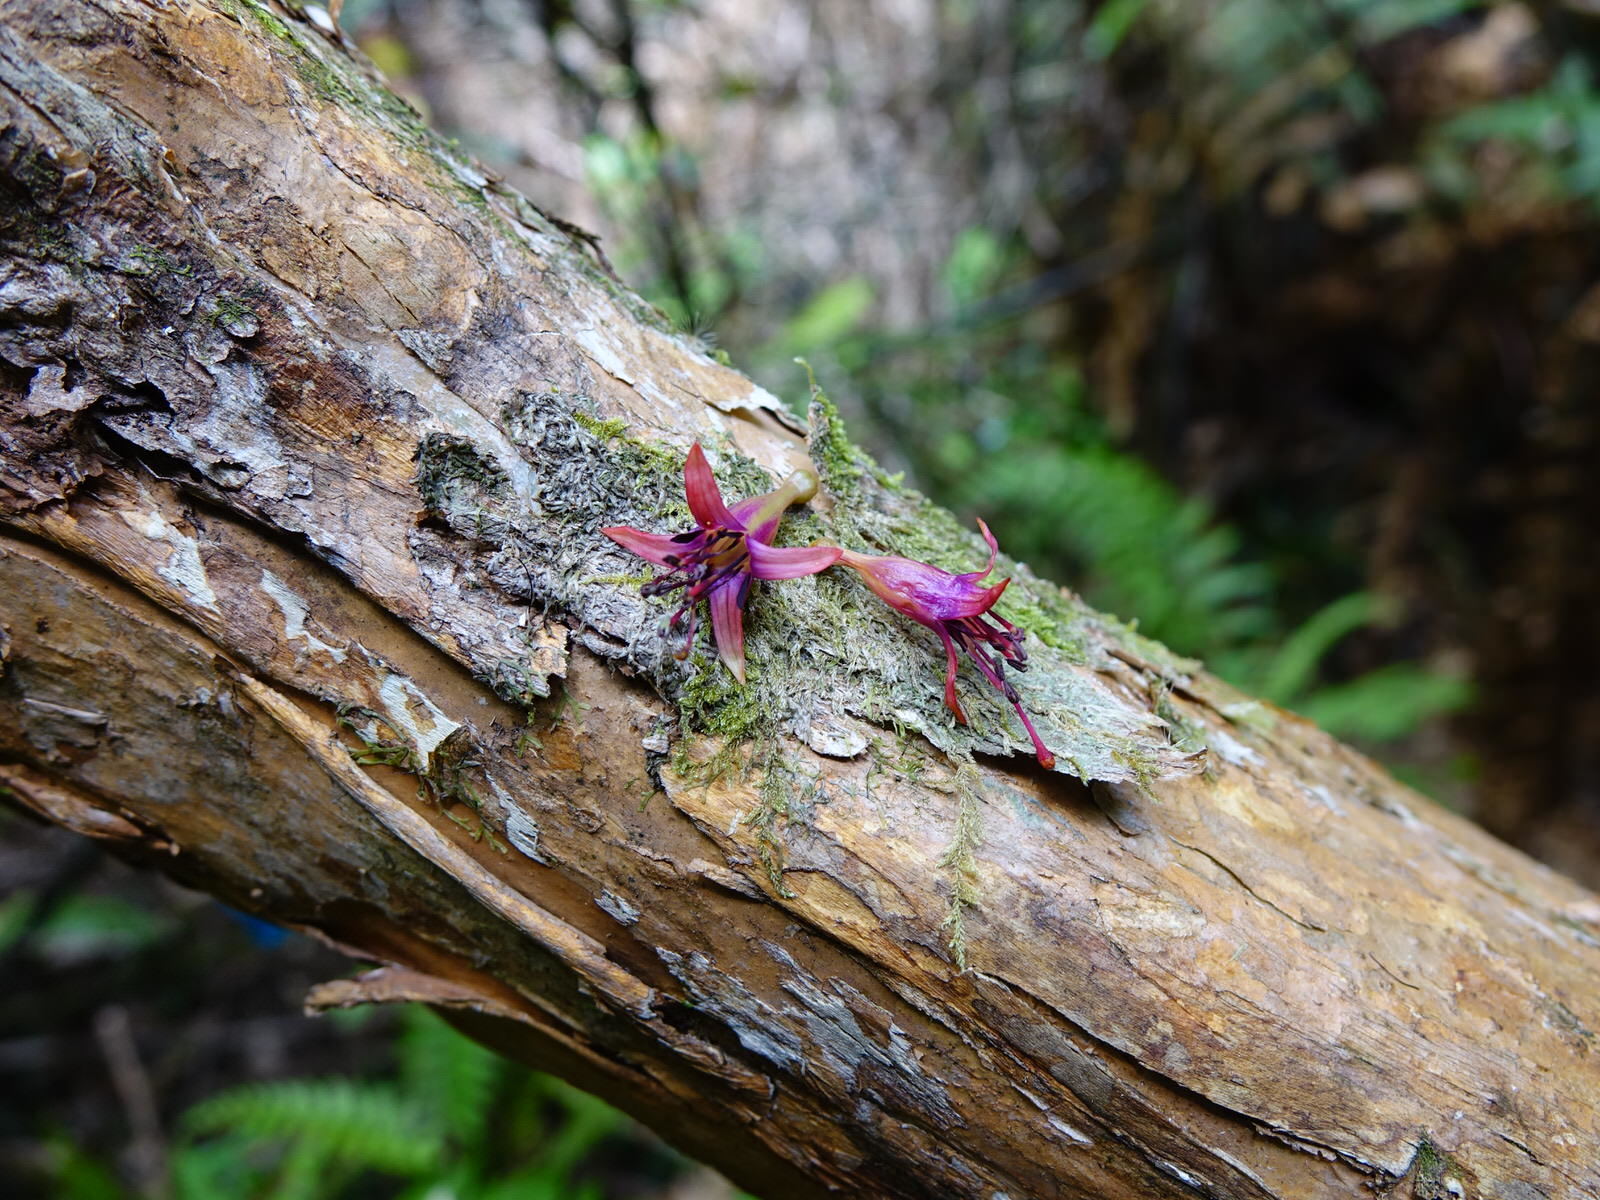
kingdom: Plantae
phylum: Tracheophyta
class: Magnoliopsida
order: Myrtales
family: Onagraceae
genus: Fuchsia
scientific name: Fuchsia excorticata
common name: Tree fuchsia
